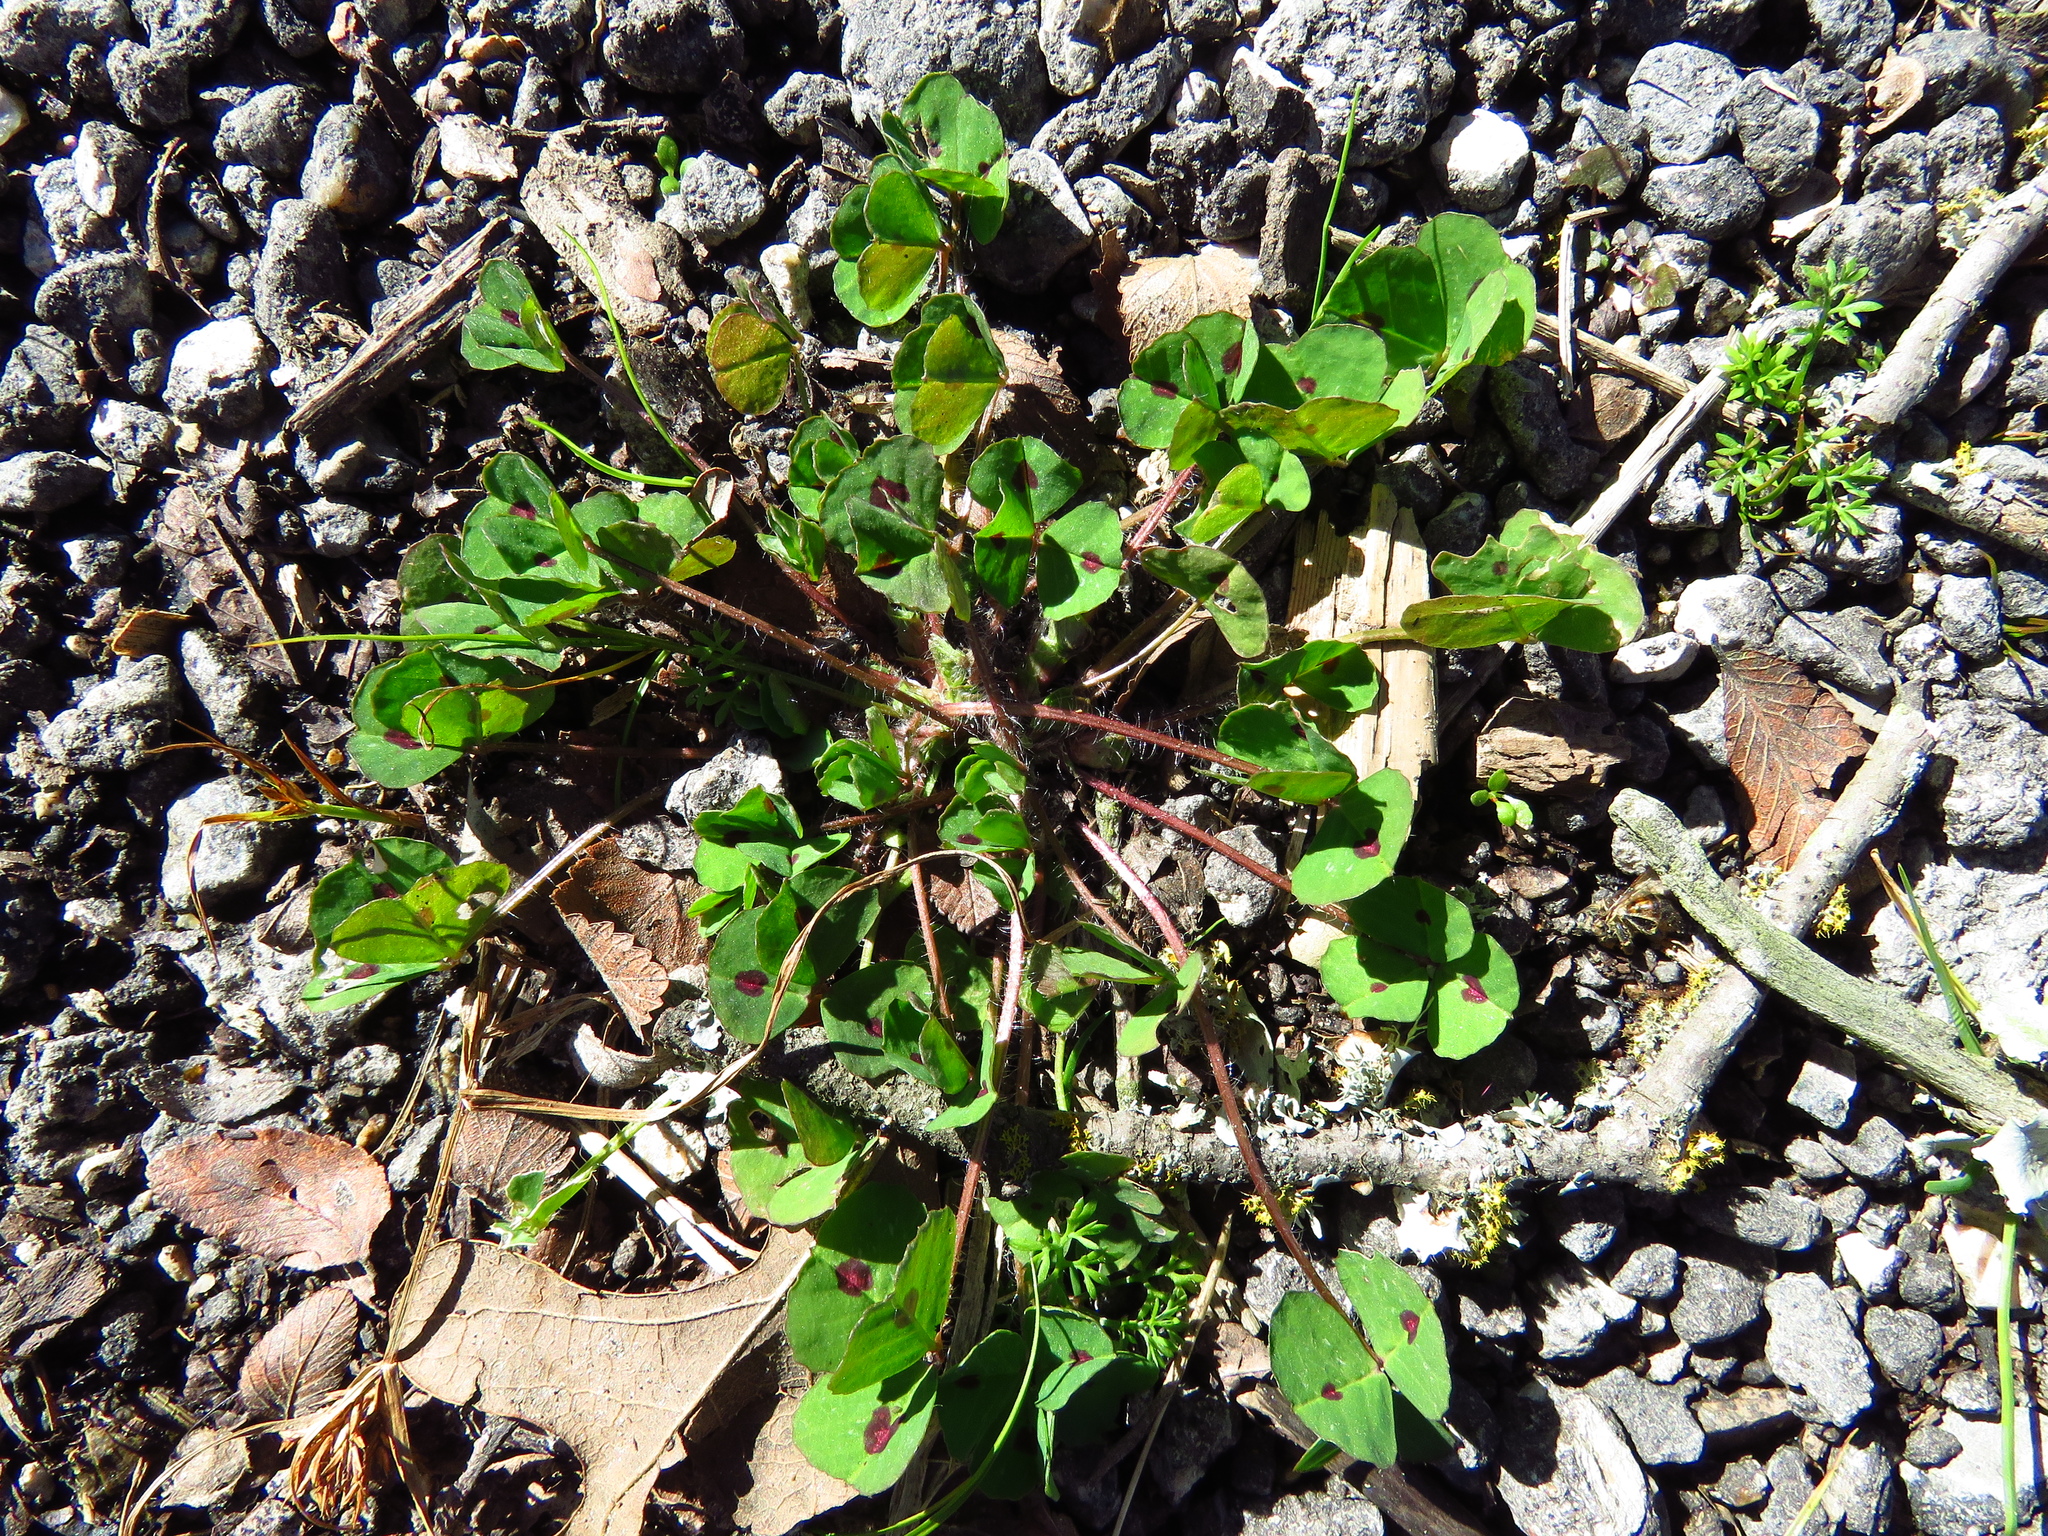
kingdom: Plantae
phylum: Tracheophyta
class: Magnoliopsida
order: Fabales
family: Fabaceae
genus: Medicago
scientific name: Medicago arabica
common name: Spotted medick
